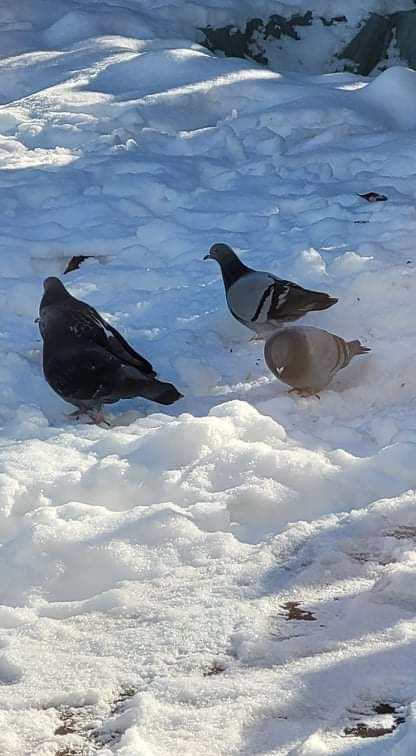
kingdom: Animalia
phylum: Chordata
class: Aves
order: Columbiformes
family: Columbidae
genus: Columba
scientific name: Columba livia
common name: Rock pigeon
